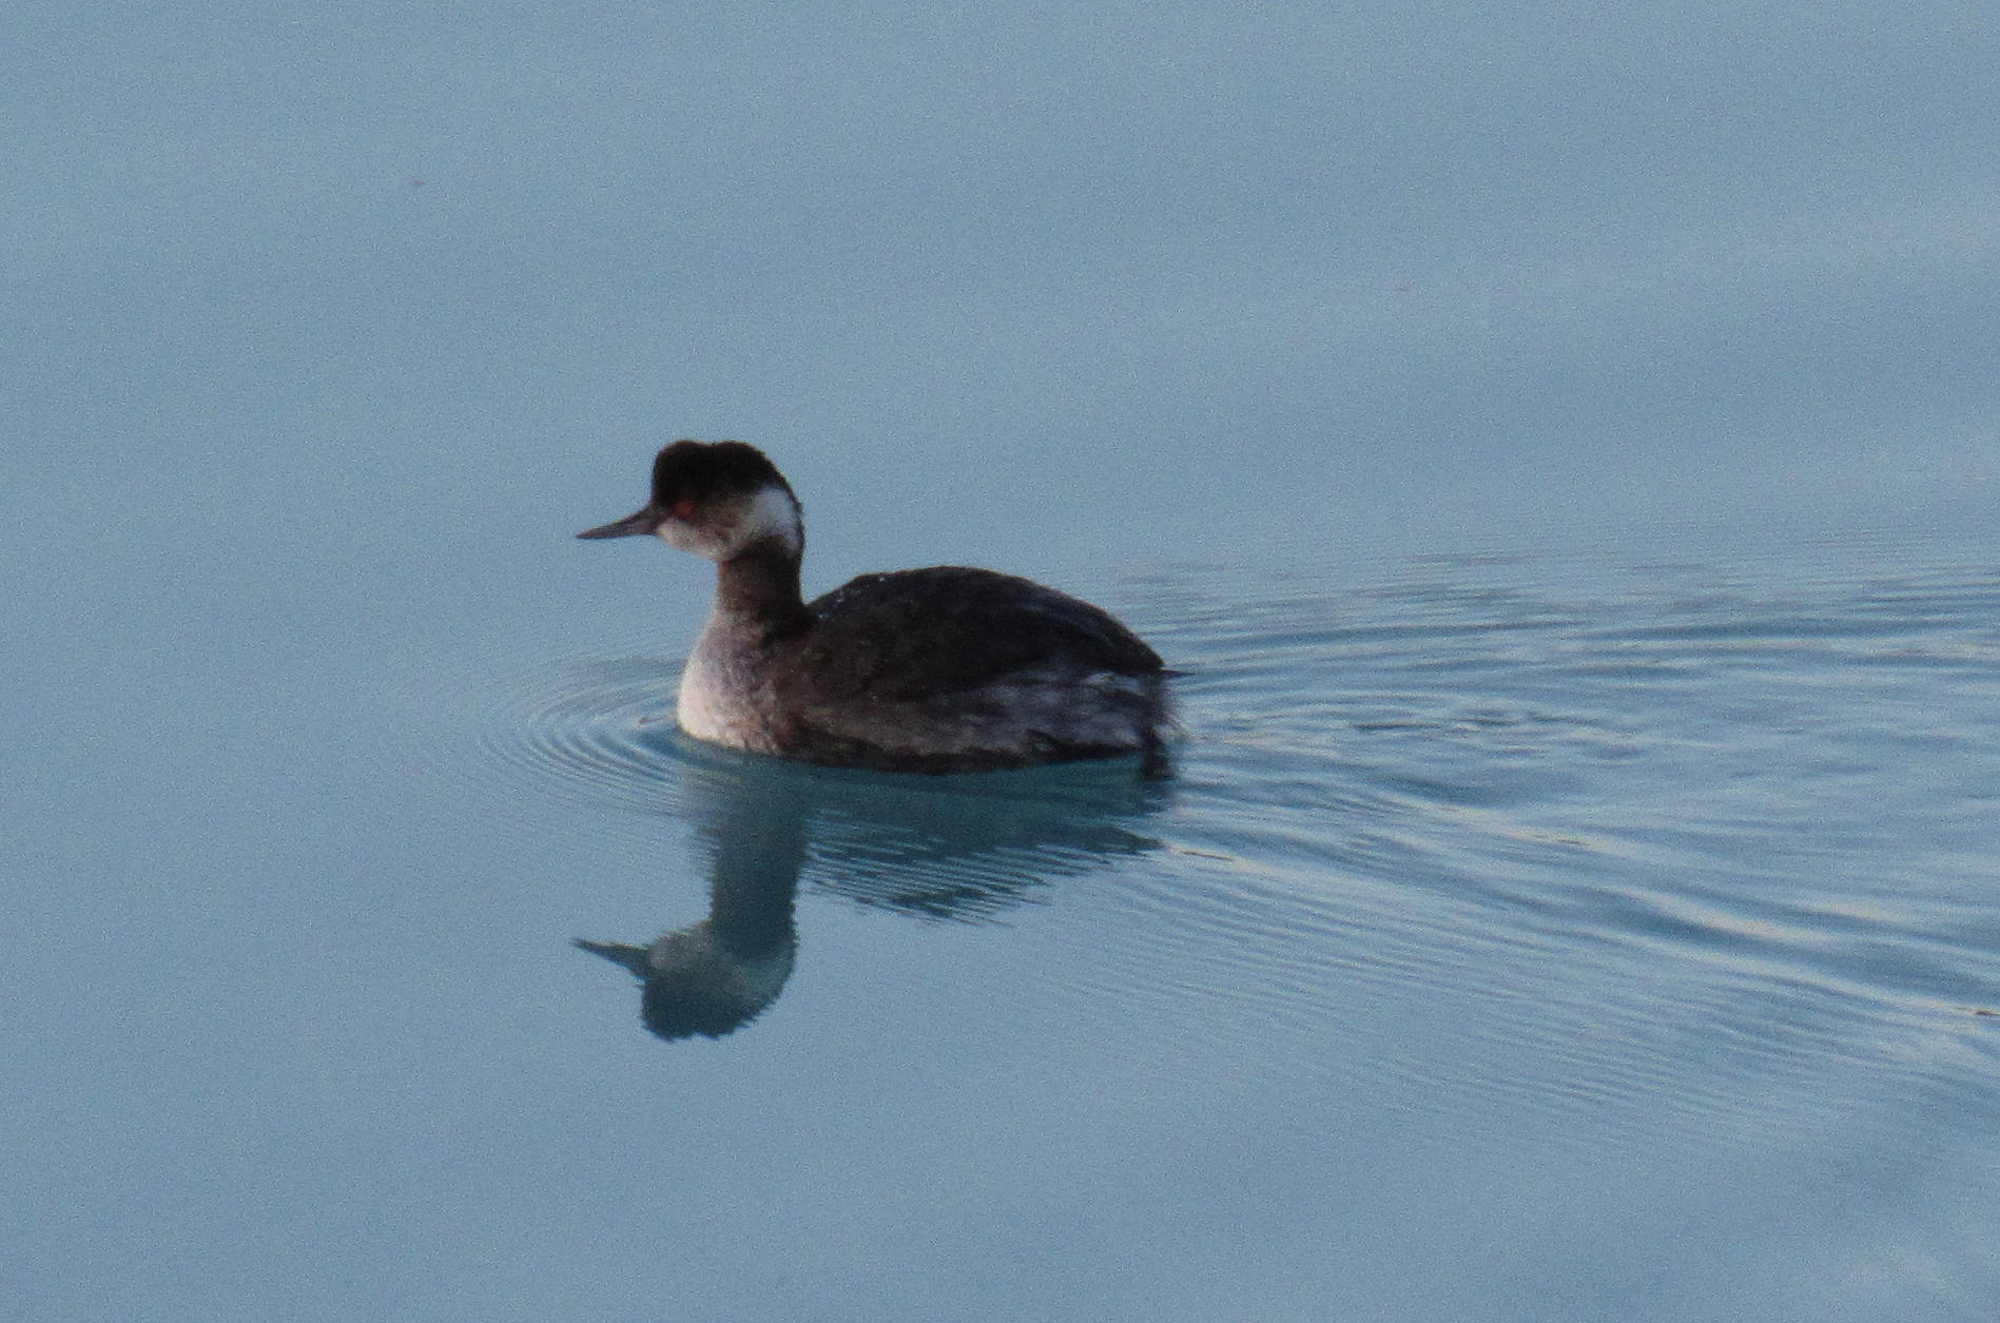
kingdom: Animalia
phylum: Chordata
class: Aves
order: Podicipediformes
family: Podicipedidae
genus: Podiceps
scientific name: Podiceps nigricollis
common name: Black-necked grebe
